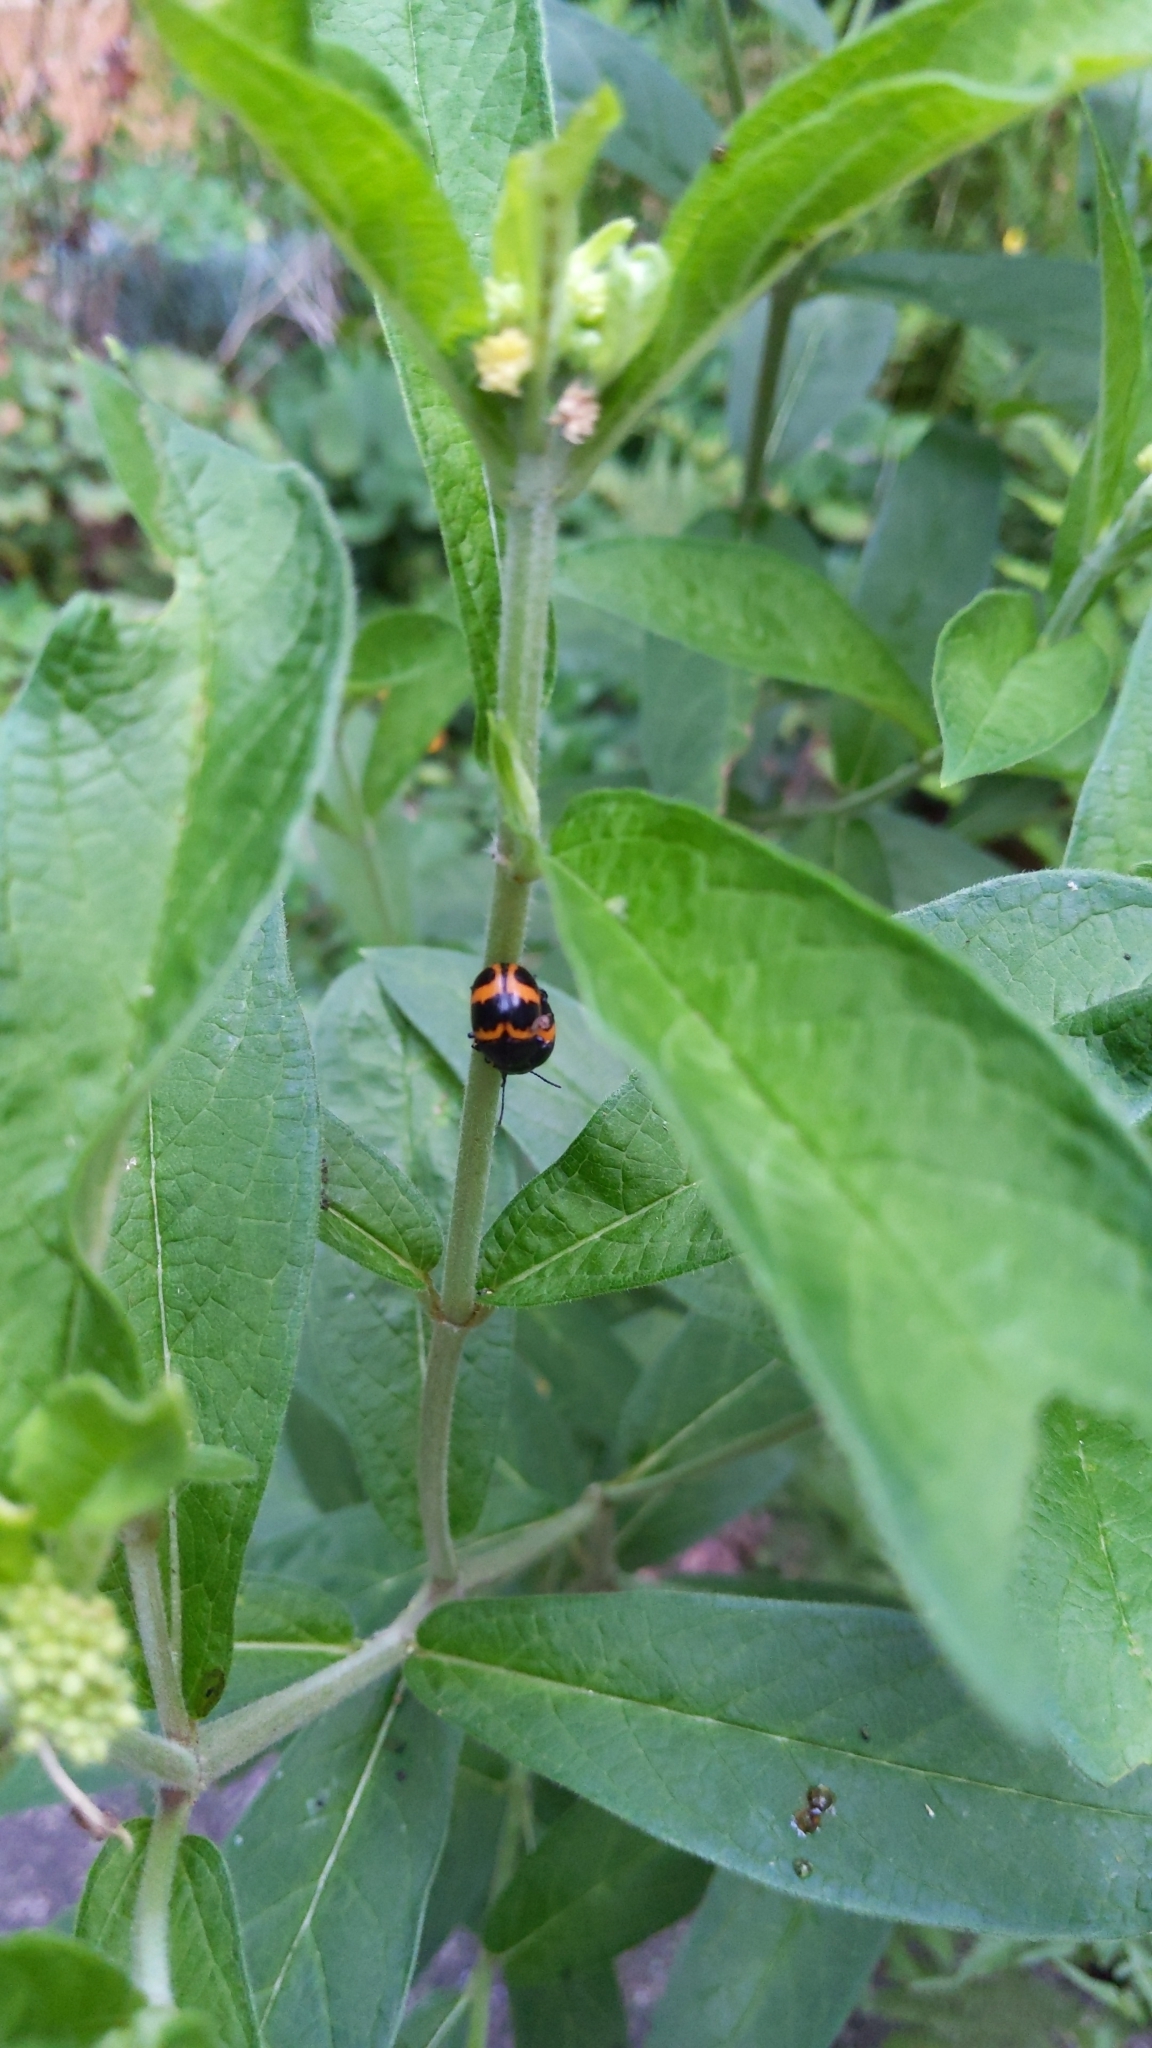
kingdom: Animalia
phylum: Arthropoda
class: Insecta
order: Coleoptera
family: Chrysomelidae
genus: Labidomera
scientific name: Labidomera clivicollis
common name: Swamp milkweed leaf beetle
